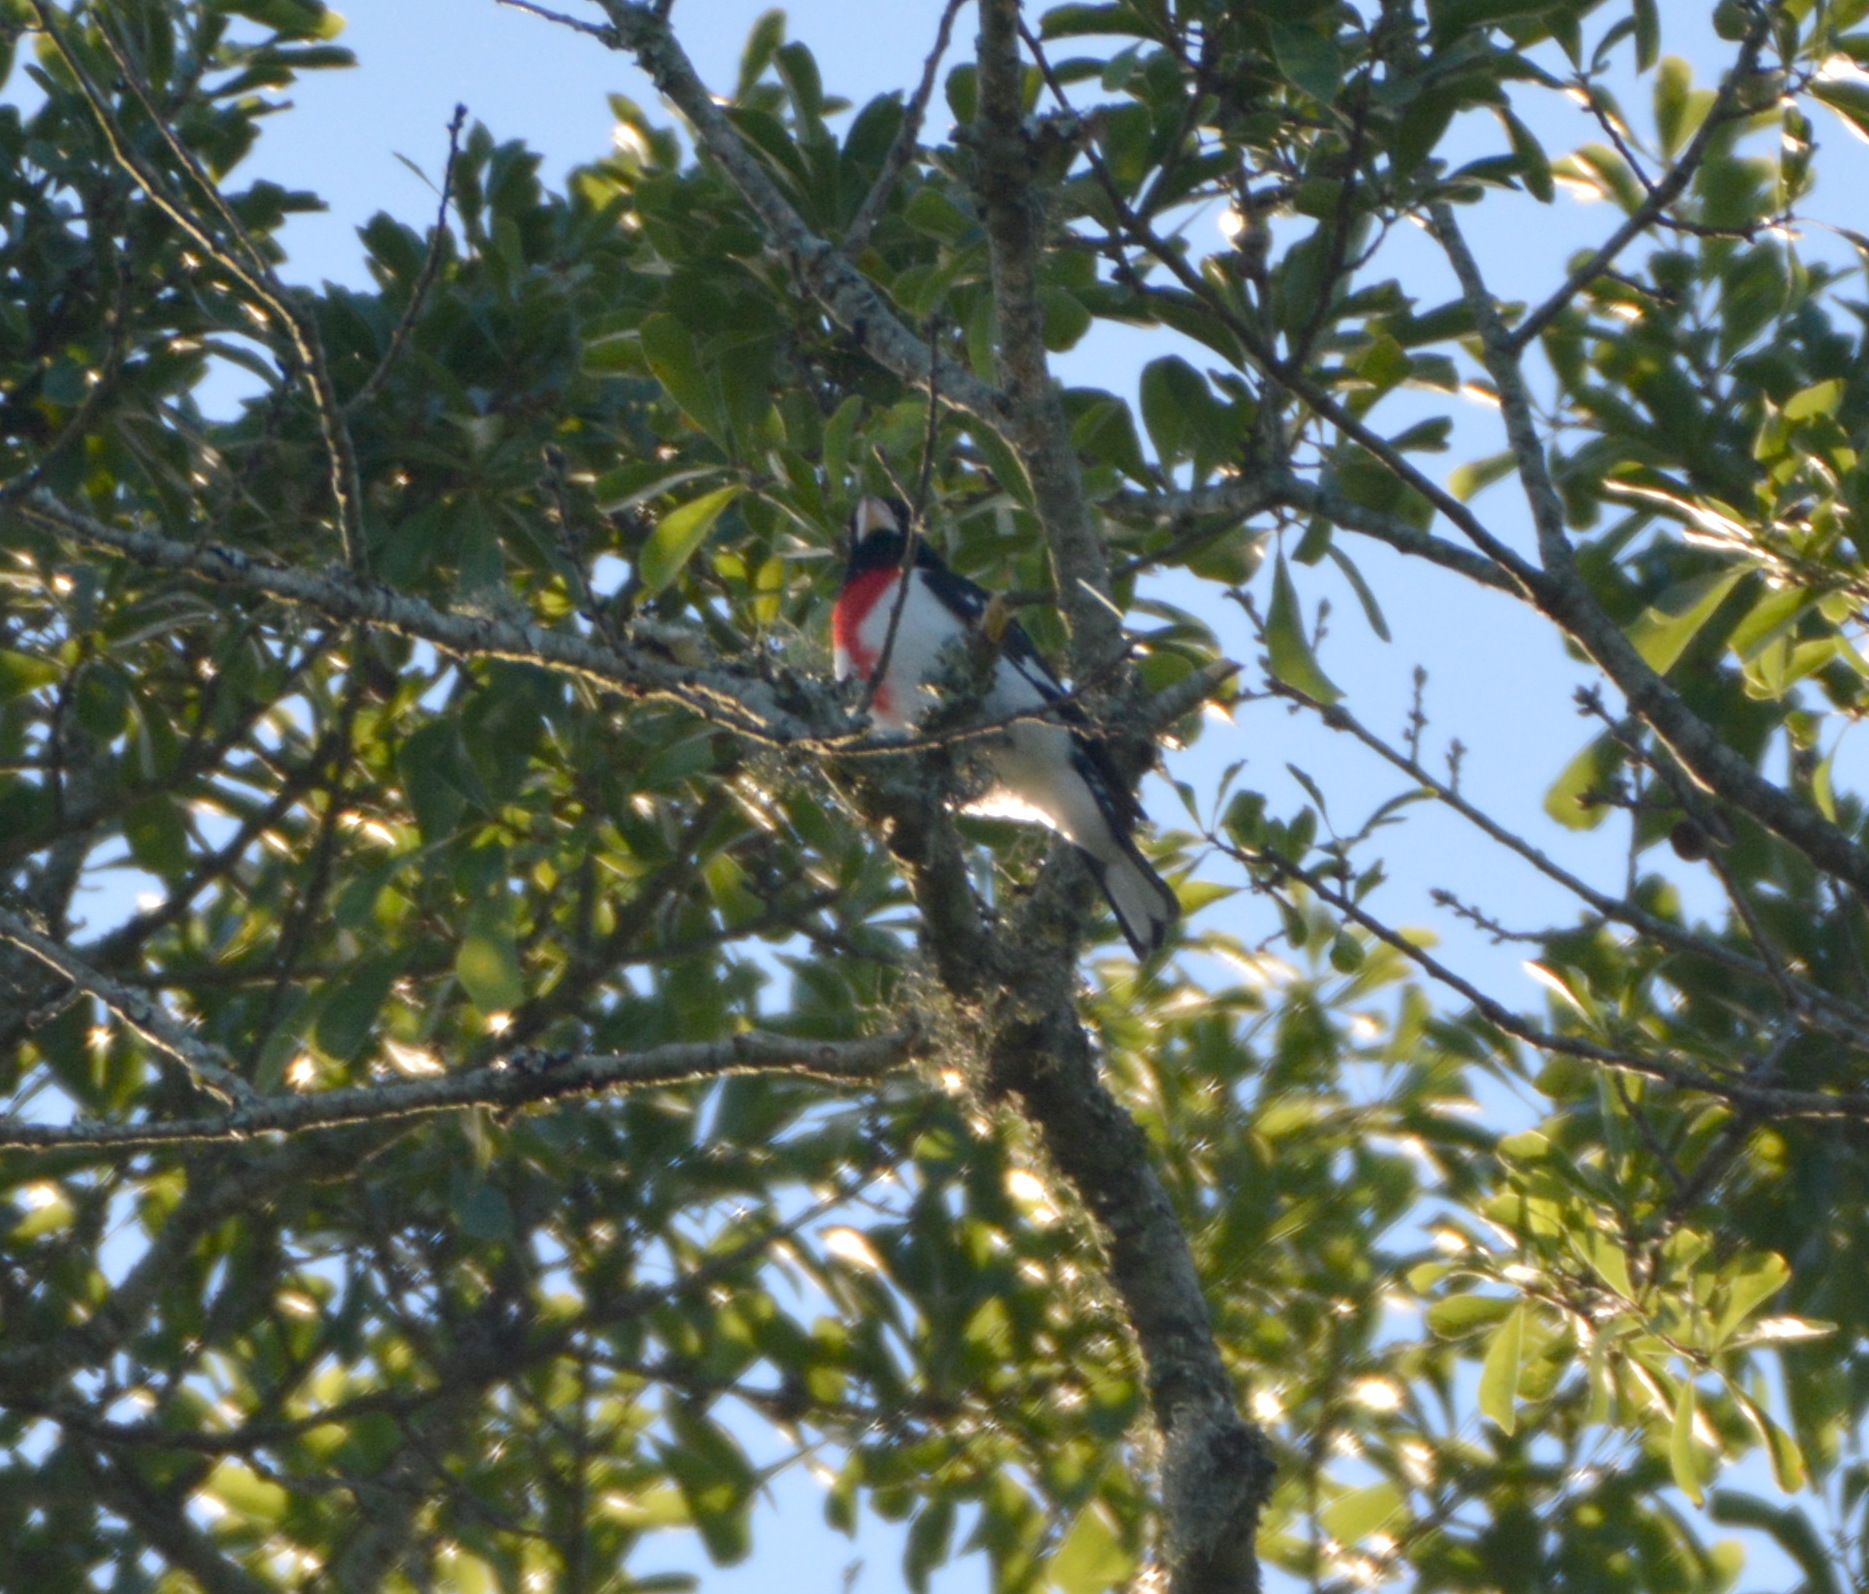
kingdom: Animalia
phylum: Chordata
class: Aves
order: Passeriformes
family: Cardinalidae
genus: Pheucticus
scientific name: Pheucticus ludovicianus
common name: Rose-breasted grosbeak
